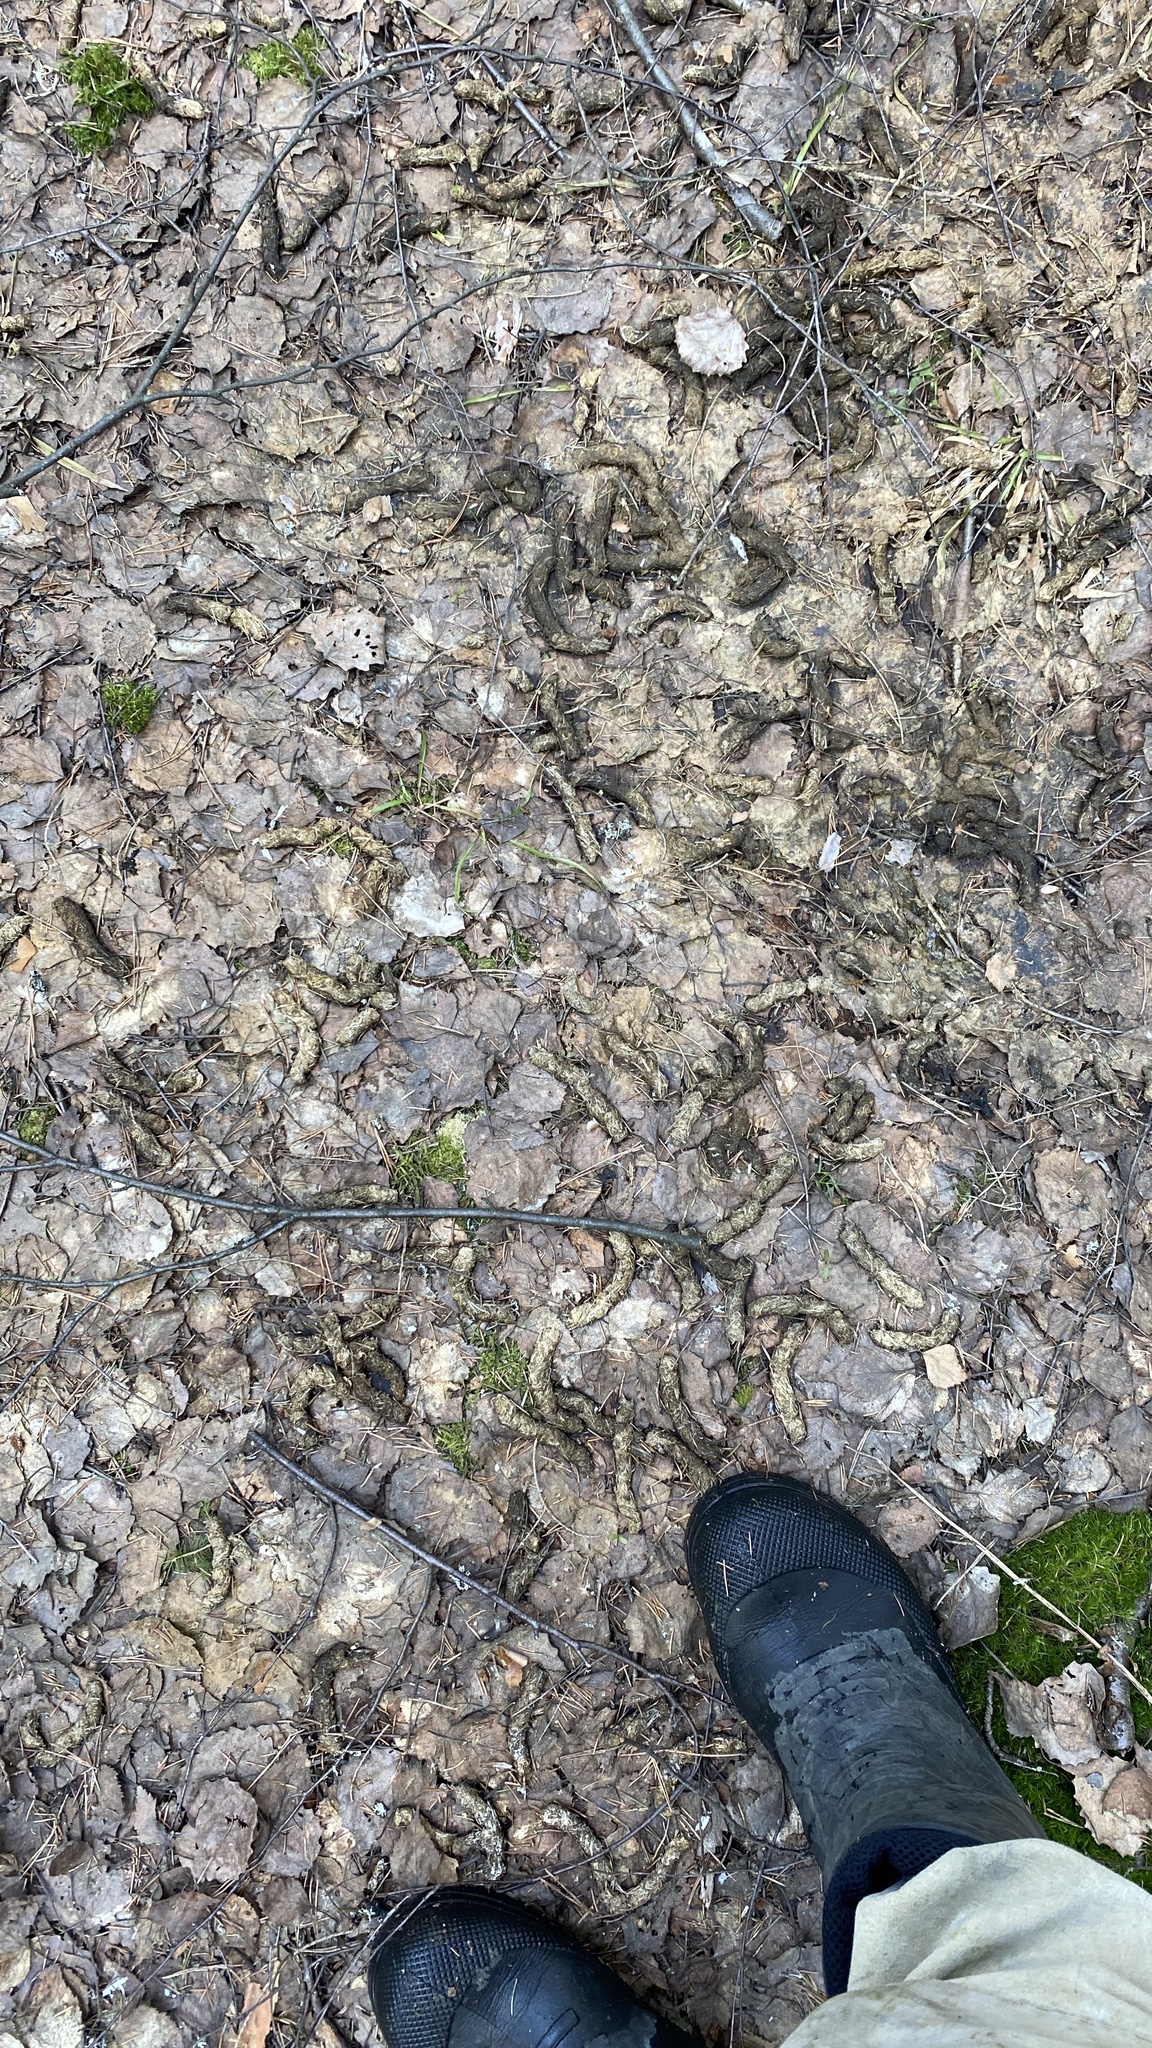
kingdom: Animalia
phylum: Chordata
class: Aves
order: Galliformes
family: Phasianidae
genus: Tetrao
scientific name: Tetrao urogallus
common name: Western capercaillie
